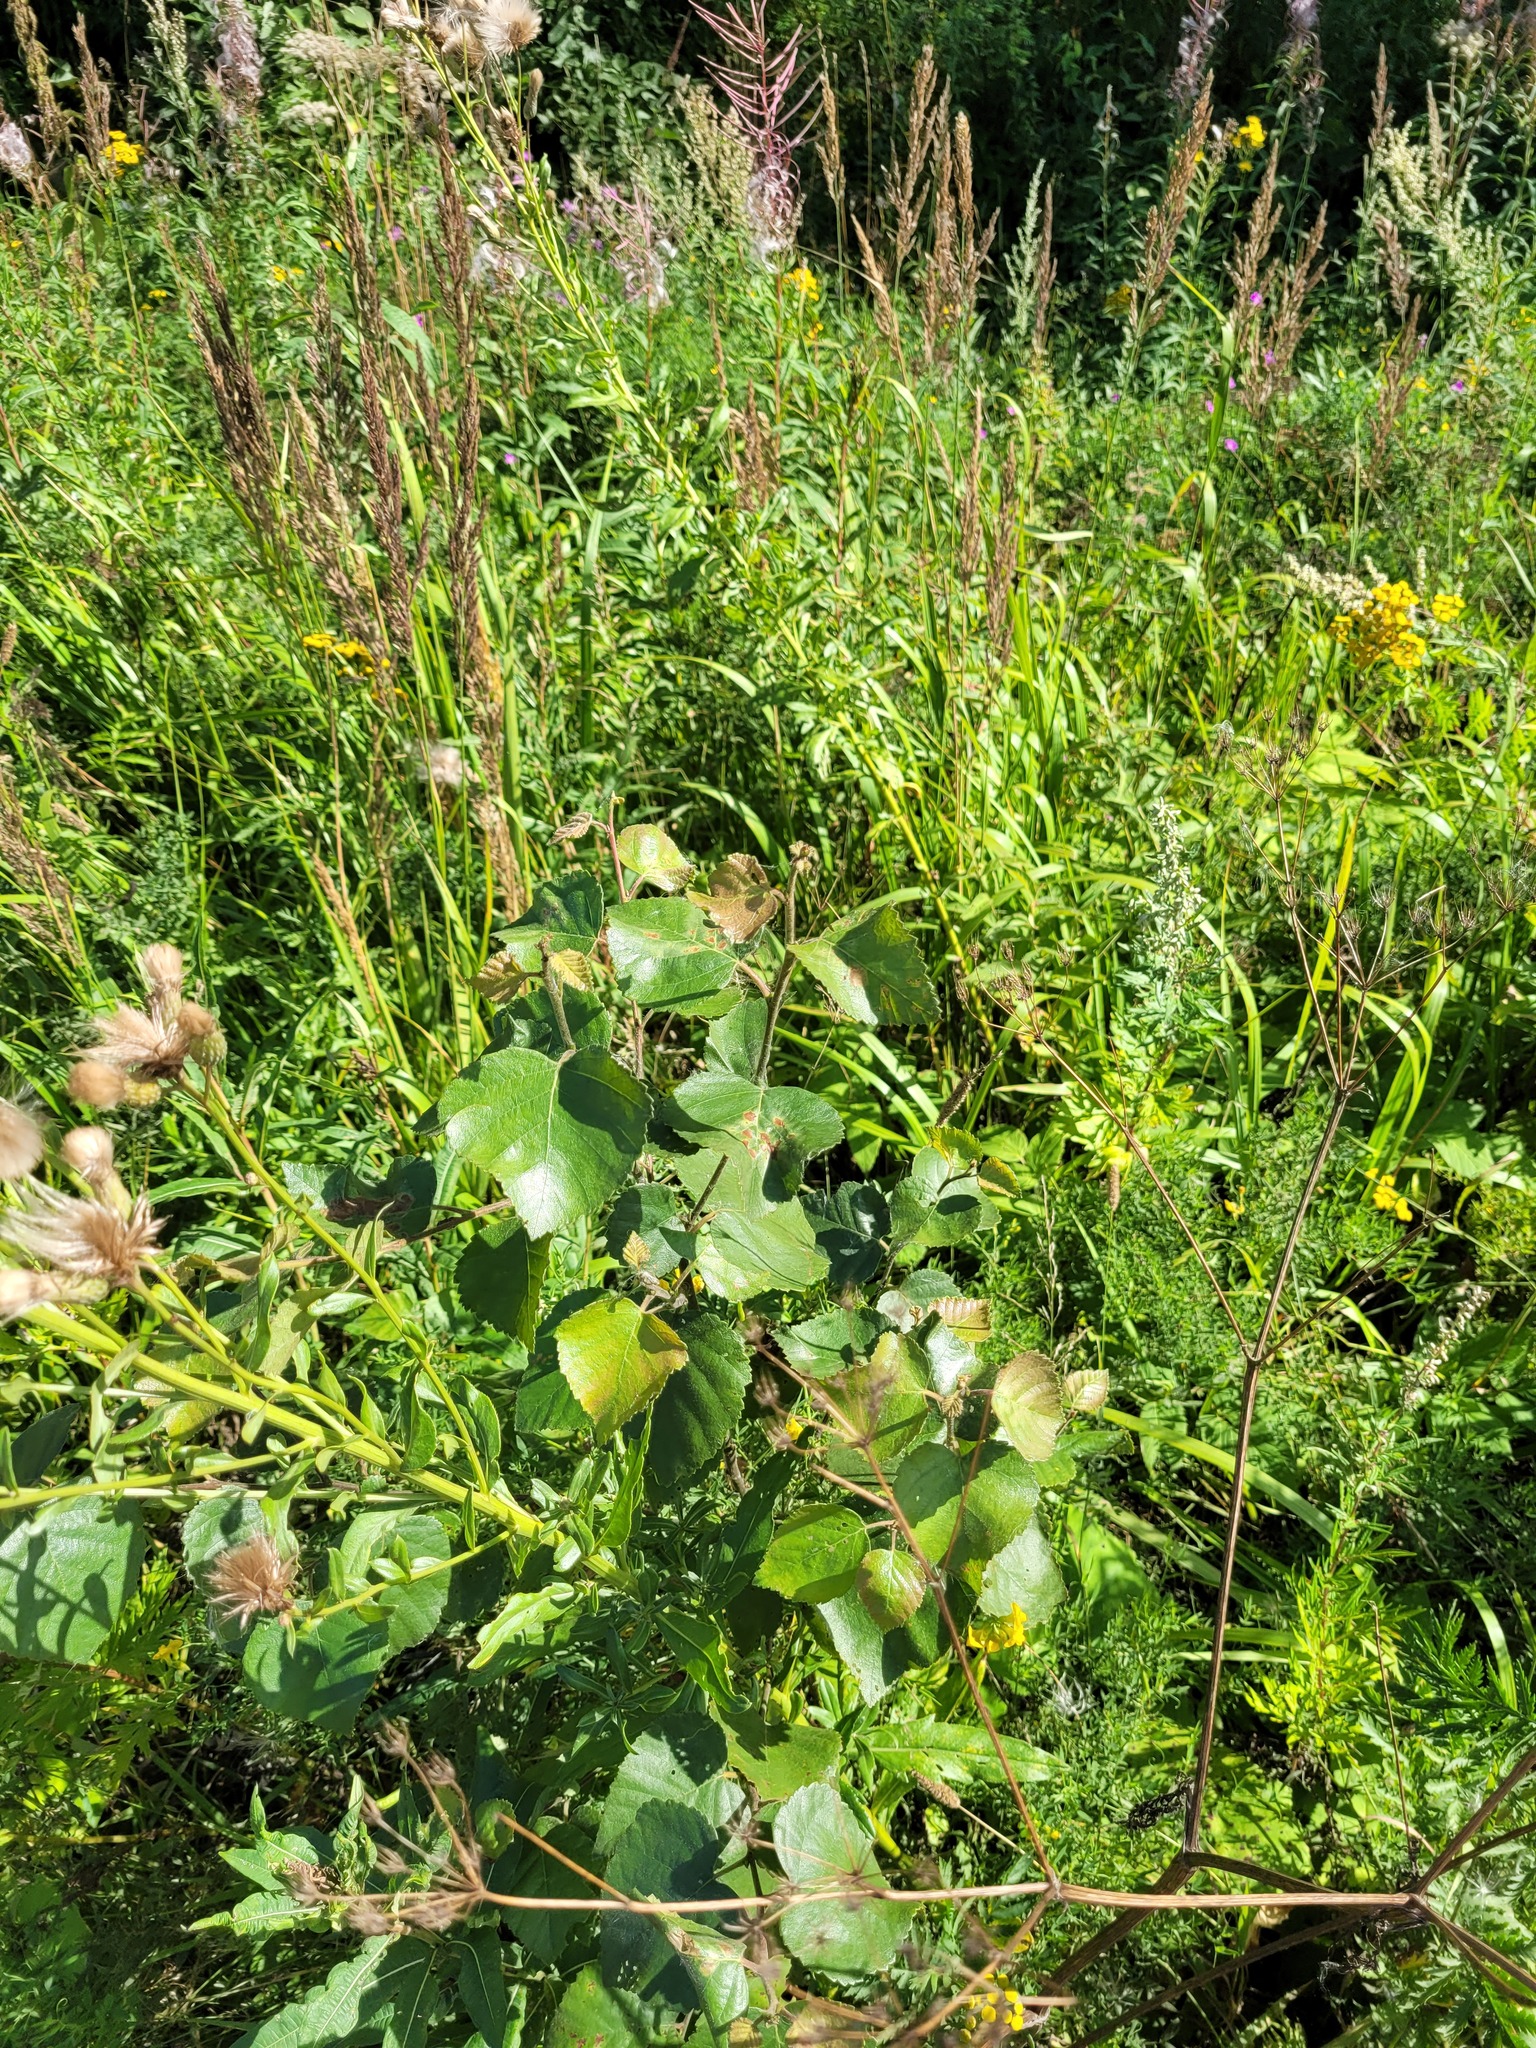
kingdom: Plantae
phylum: Tracheophyta
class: Magnoliopsida
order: Fagales
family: Betulaceae
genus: Betula
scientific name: Betula pubescens
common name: Downy birch
